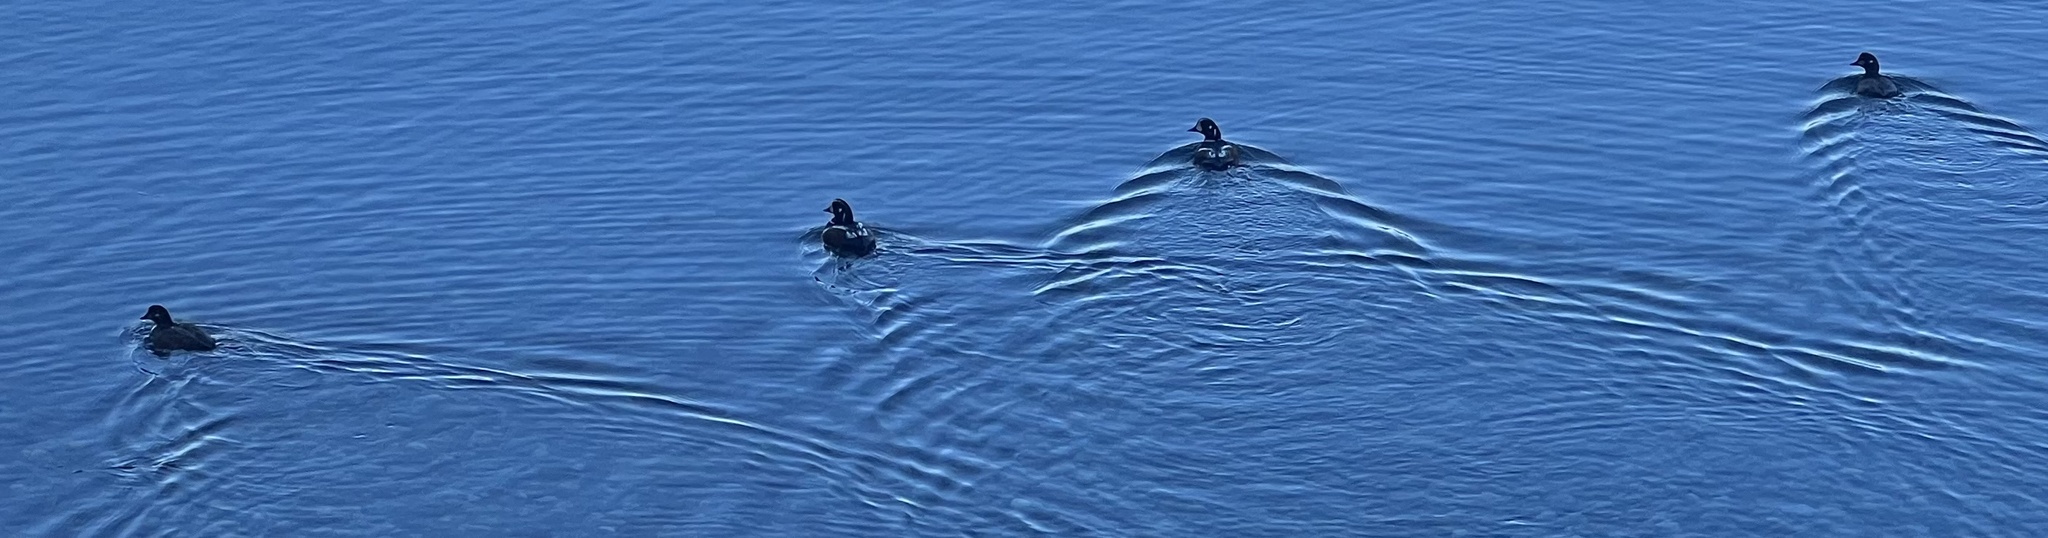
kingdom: Animalia
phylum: Chordata
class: Aves
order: Anseriformes
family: Anatidae
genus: Histrionicus
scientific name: Histrionicus histrionicus
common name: Harlequin duck
